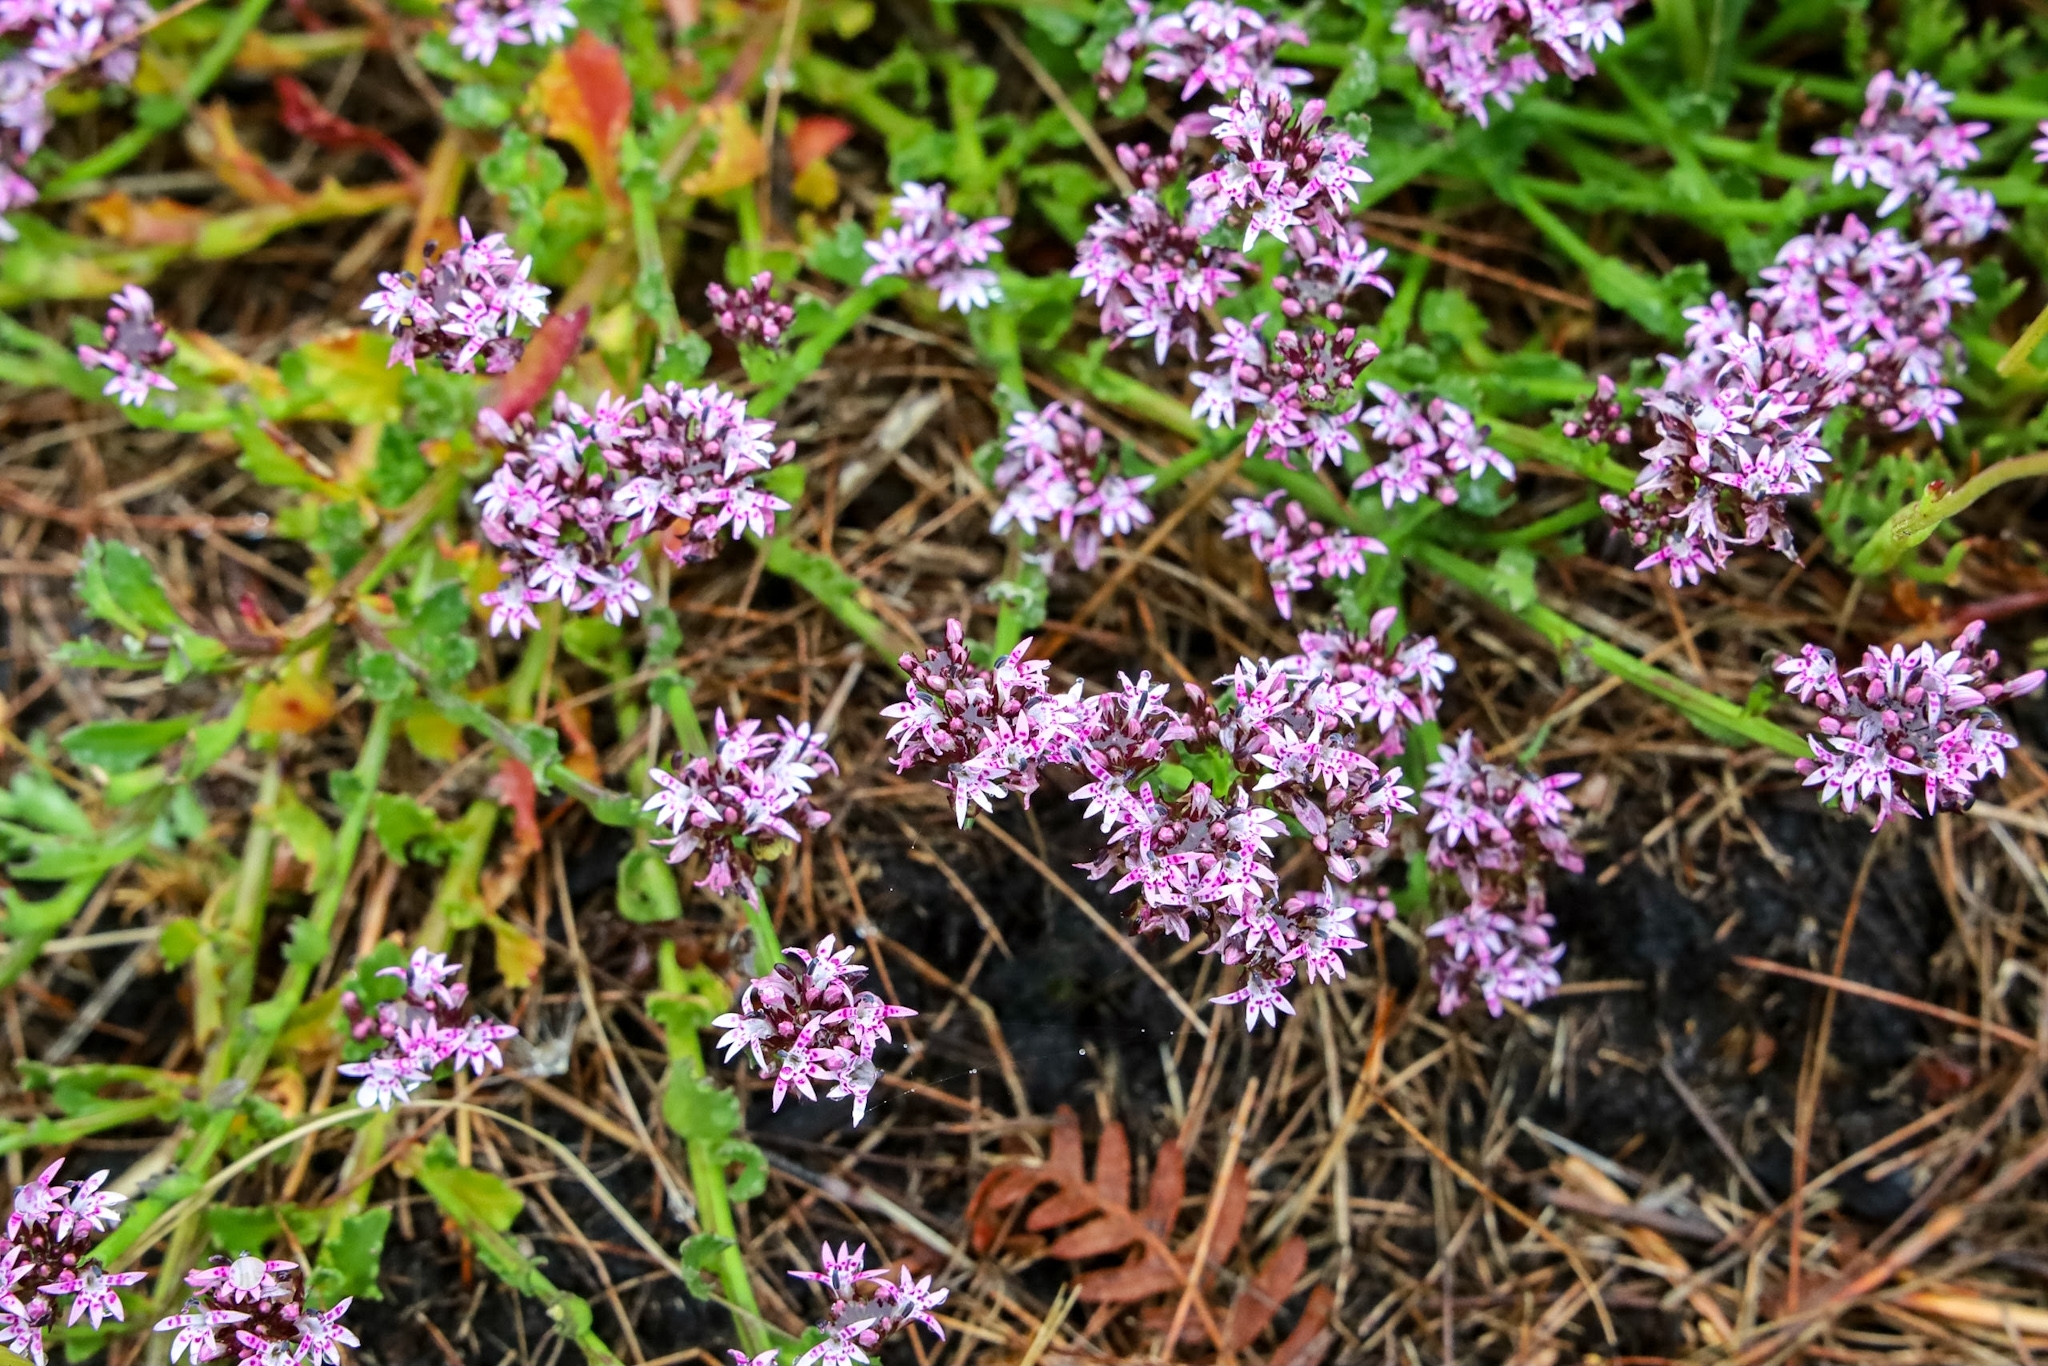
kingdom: Plantae
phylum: Tracheophyta
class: Magnoliopsida
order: Asterales
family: Campanulaceae
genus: Lobelia
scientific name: Lobelia jasionoides
